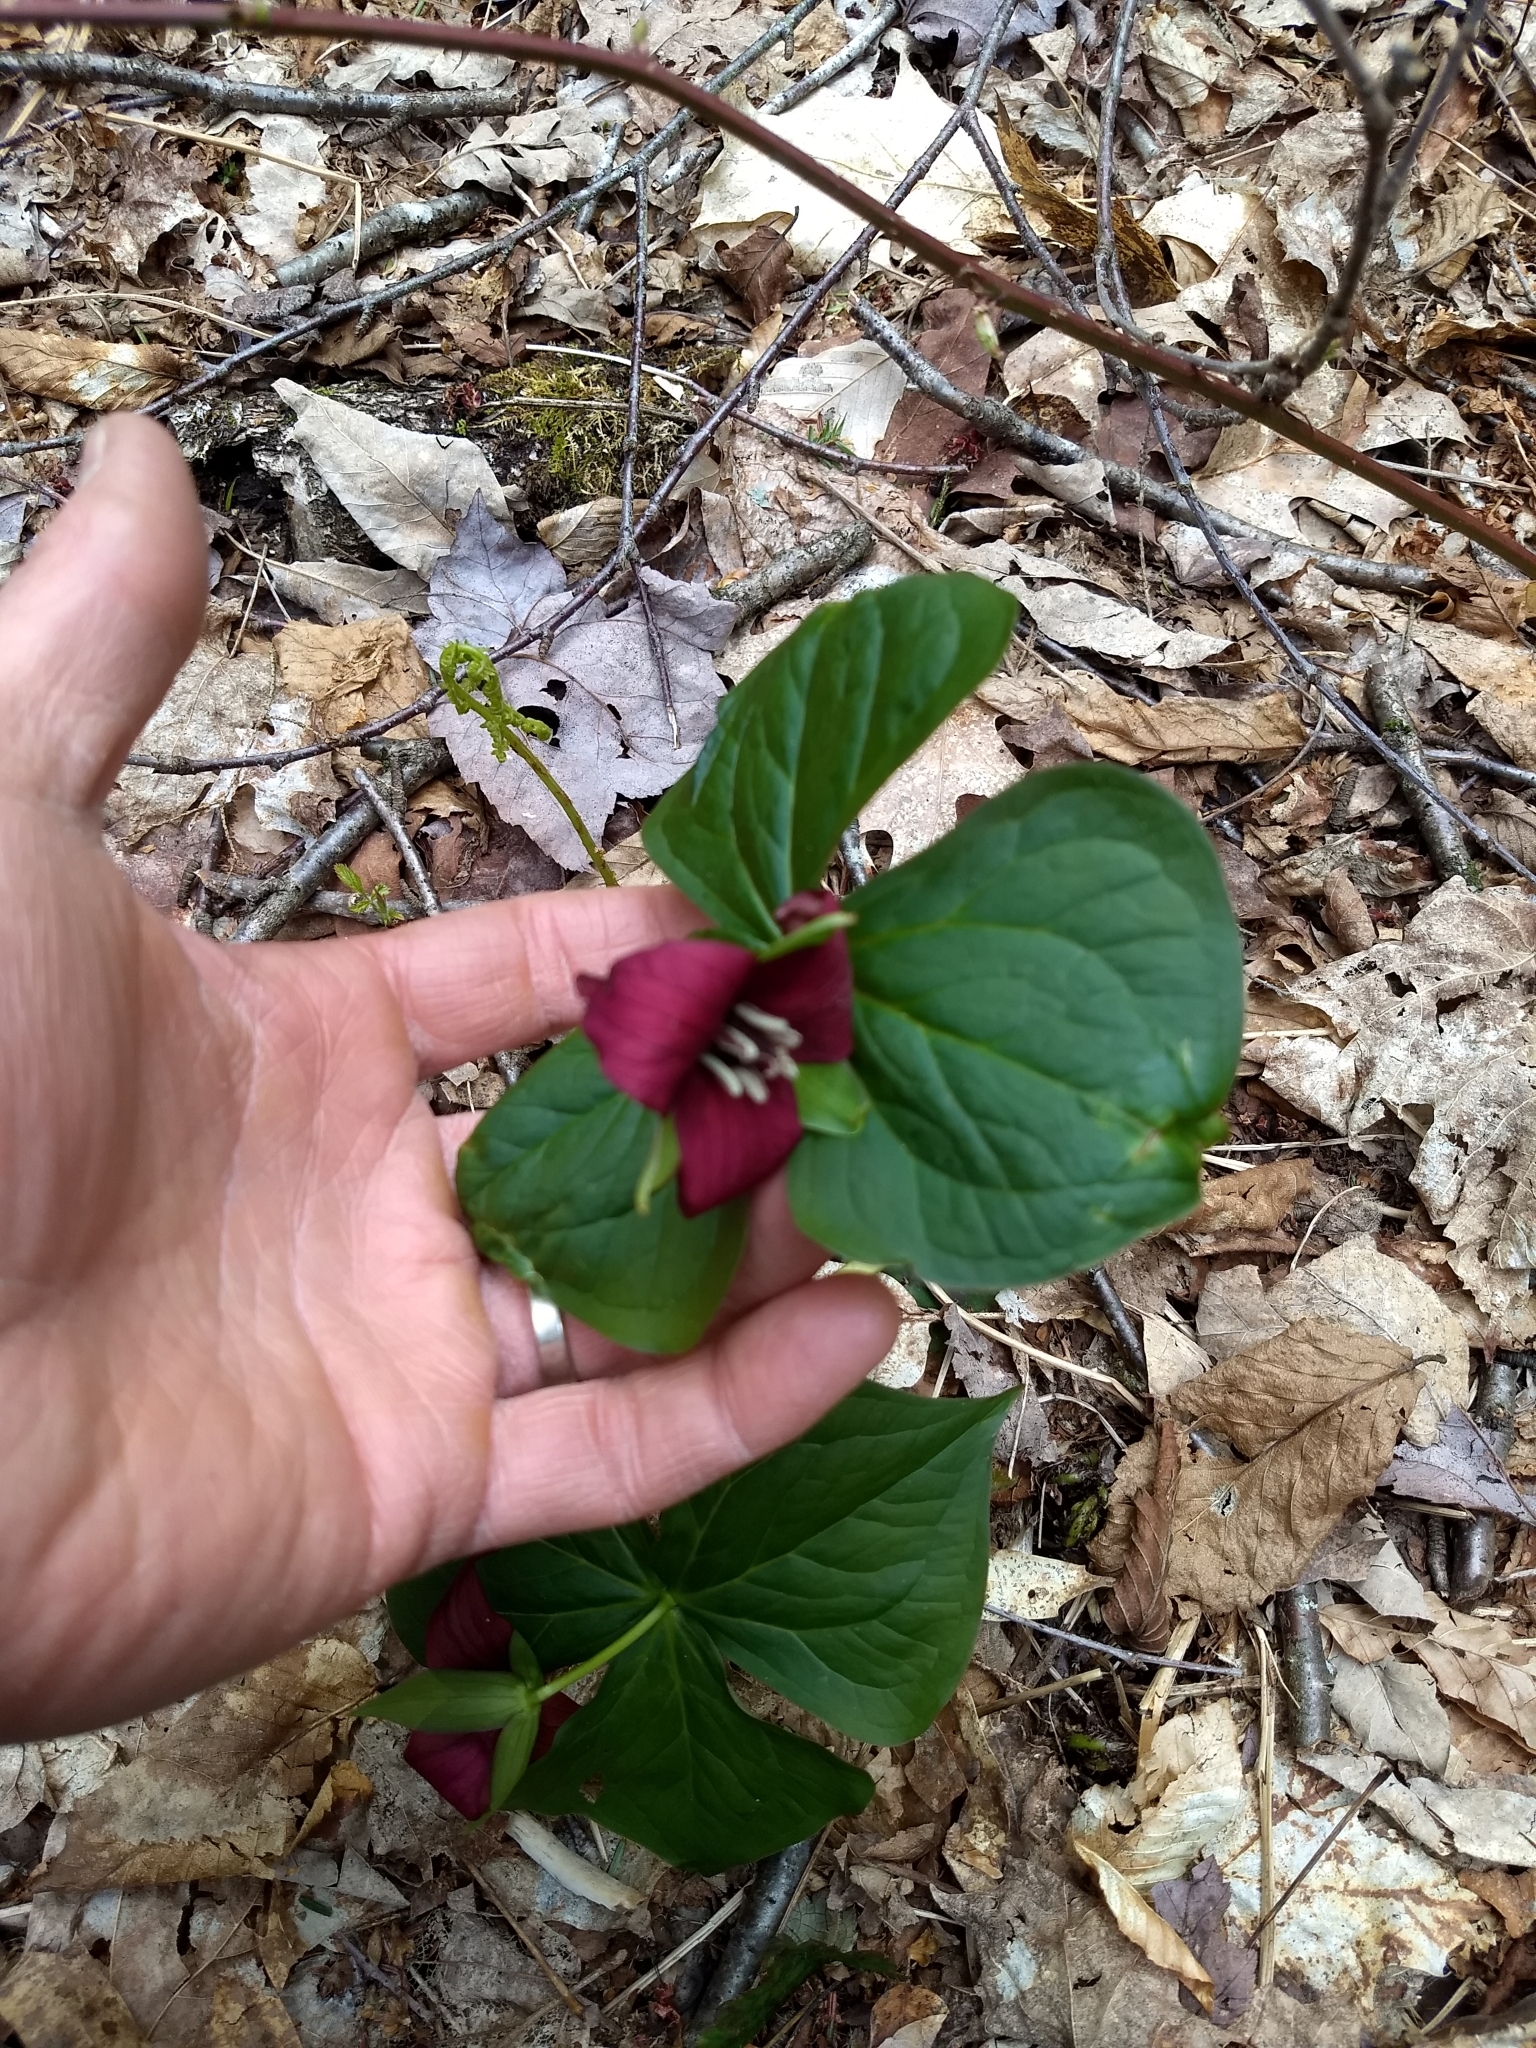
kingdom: Plantae
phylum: Tracheophyta
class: Liliopsida
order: Liliales
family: Melanthiaceae
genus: Trillium
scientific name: Trillium erectum
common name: Purple trillium
